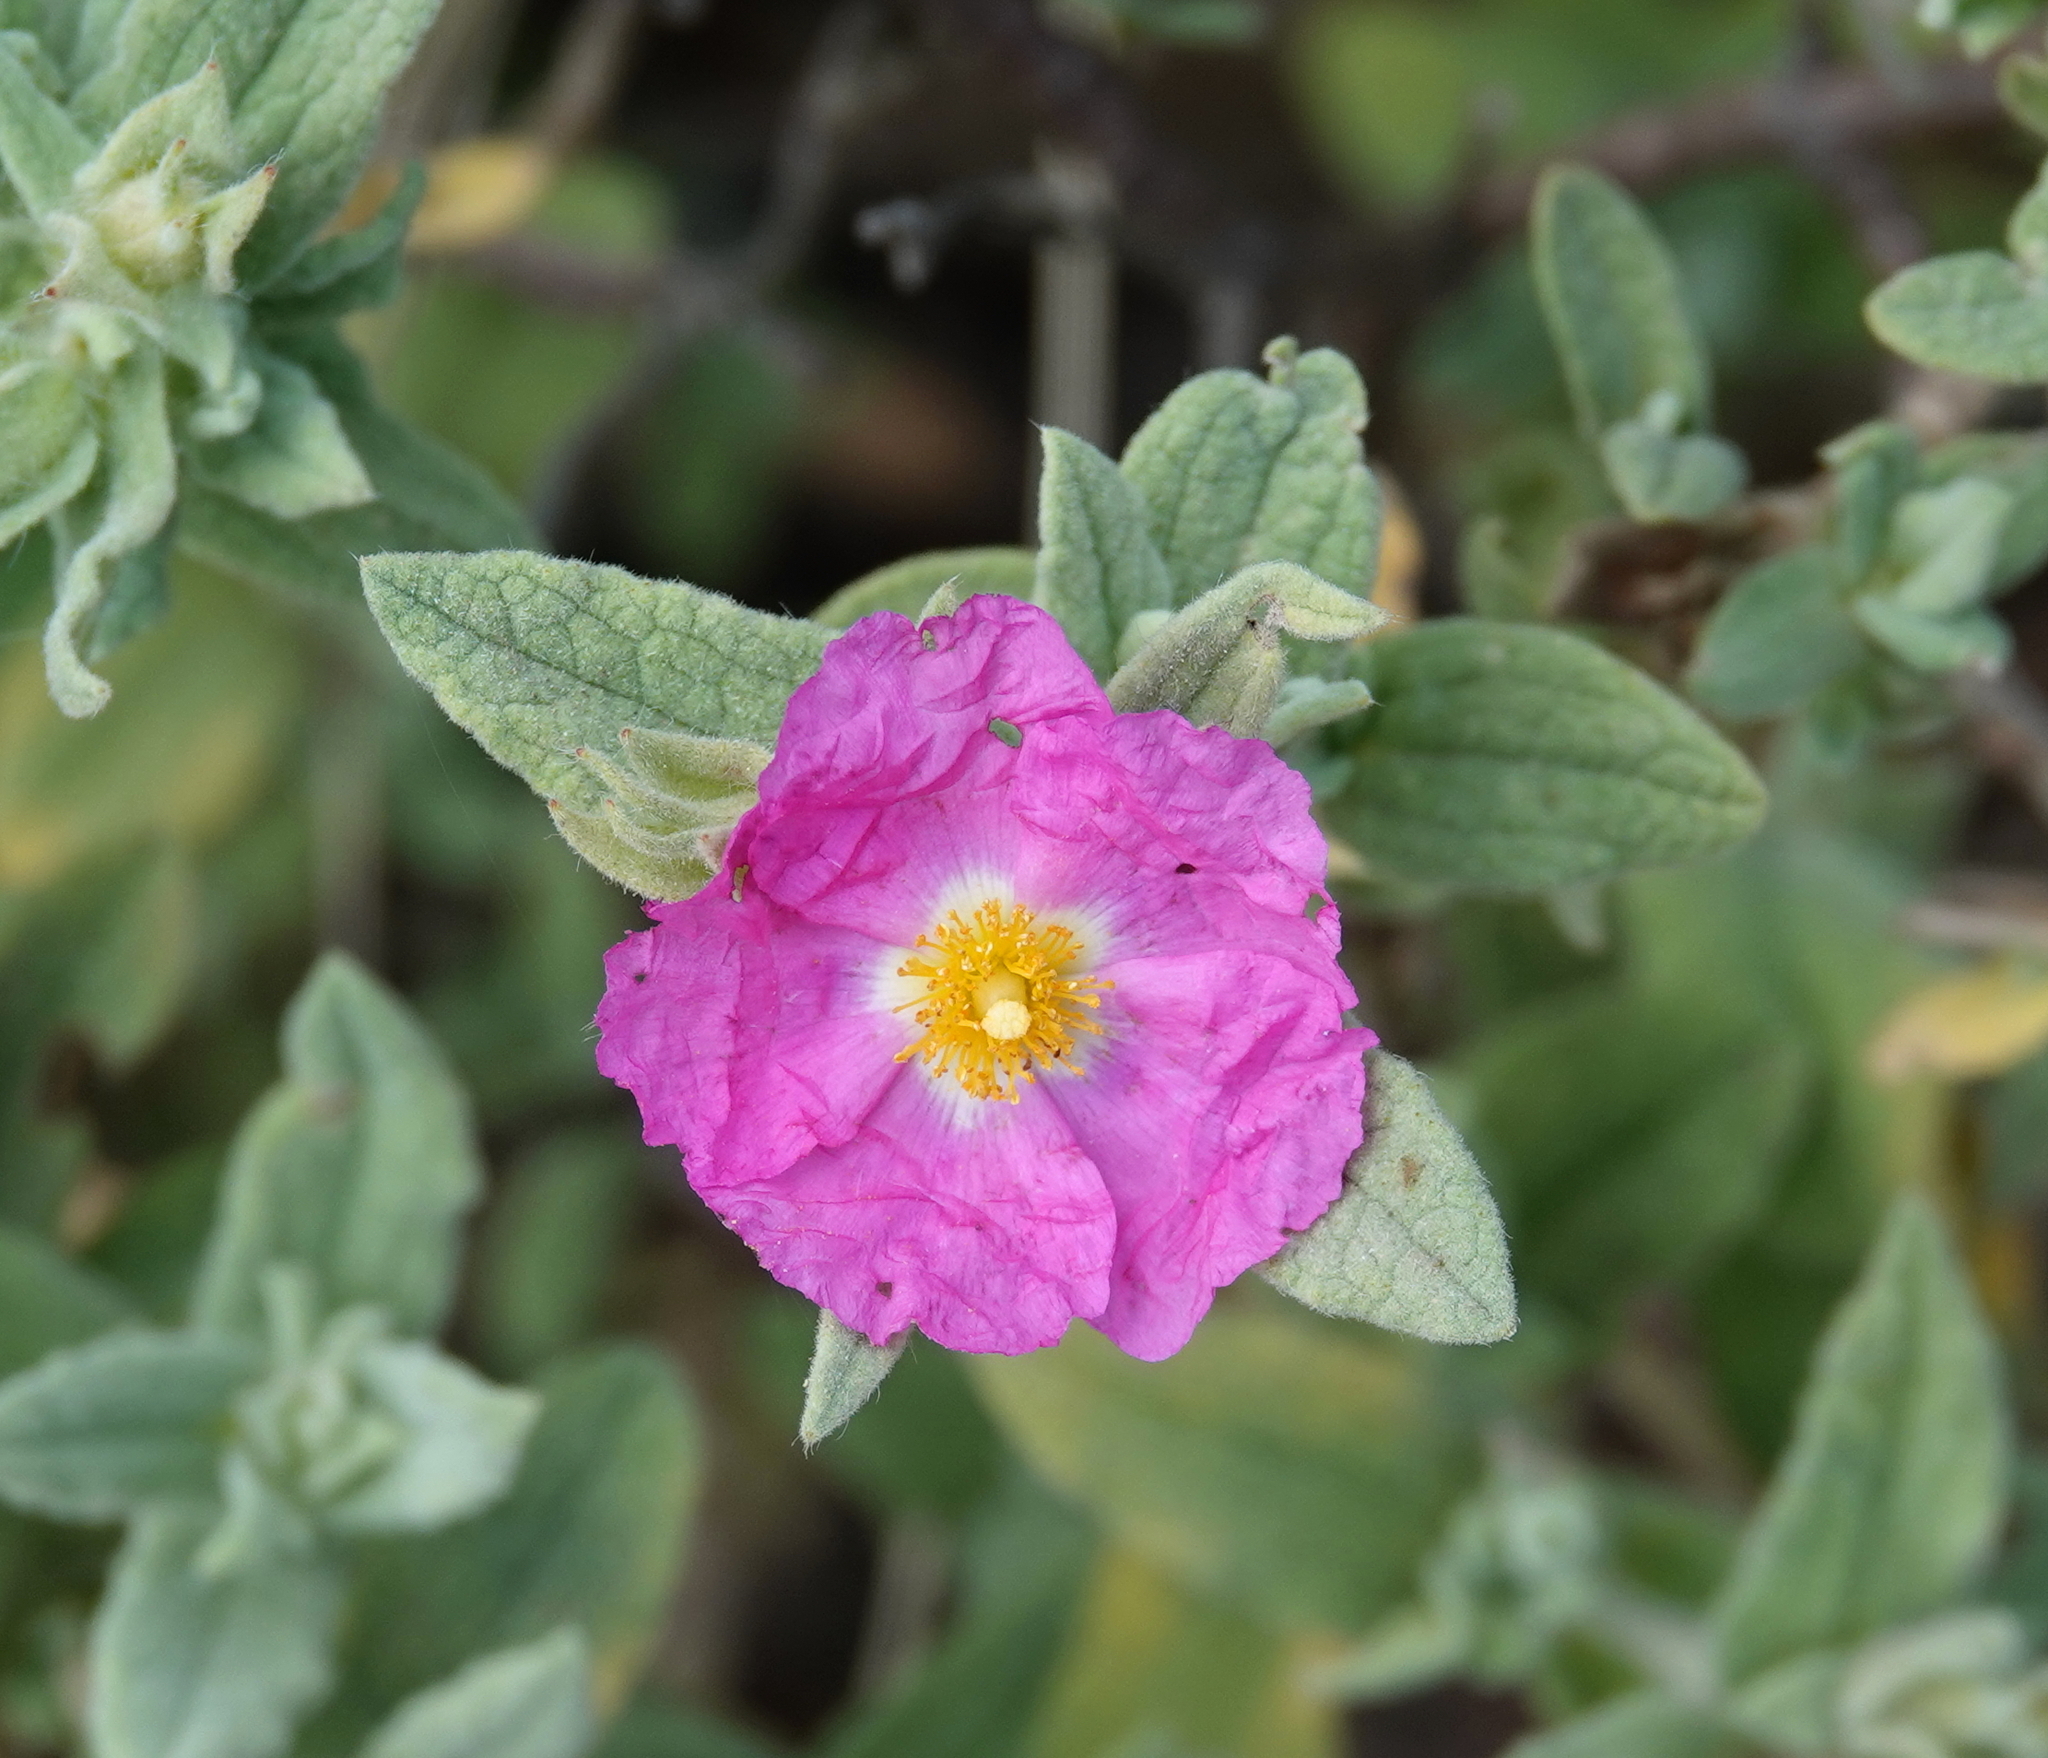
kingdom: Plantae
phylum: Tracheophyta
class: Magnoliopsida
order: Malvales
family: Cistaceae
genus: Cistus
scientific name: Cistus crispus
